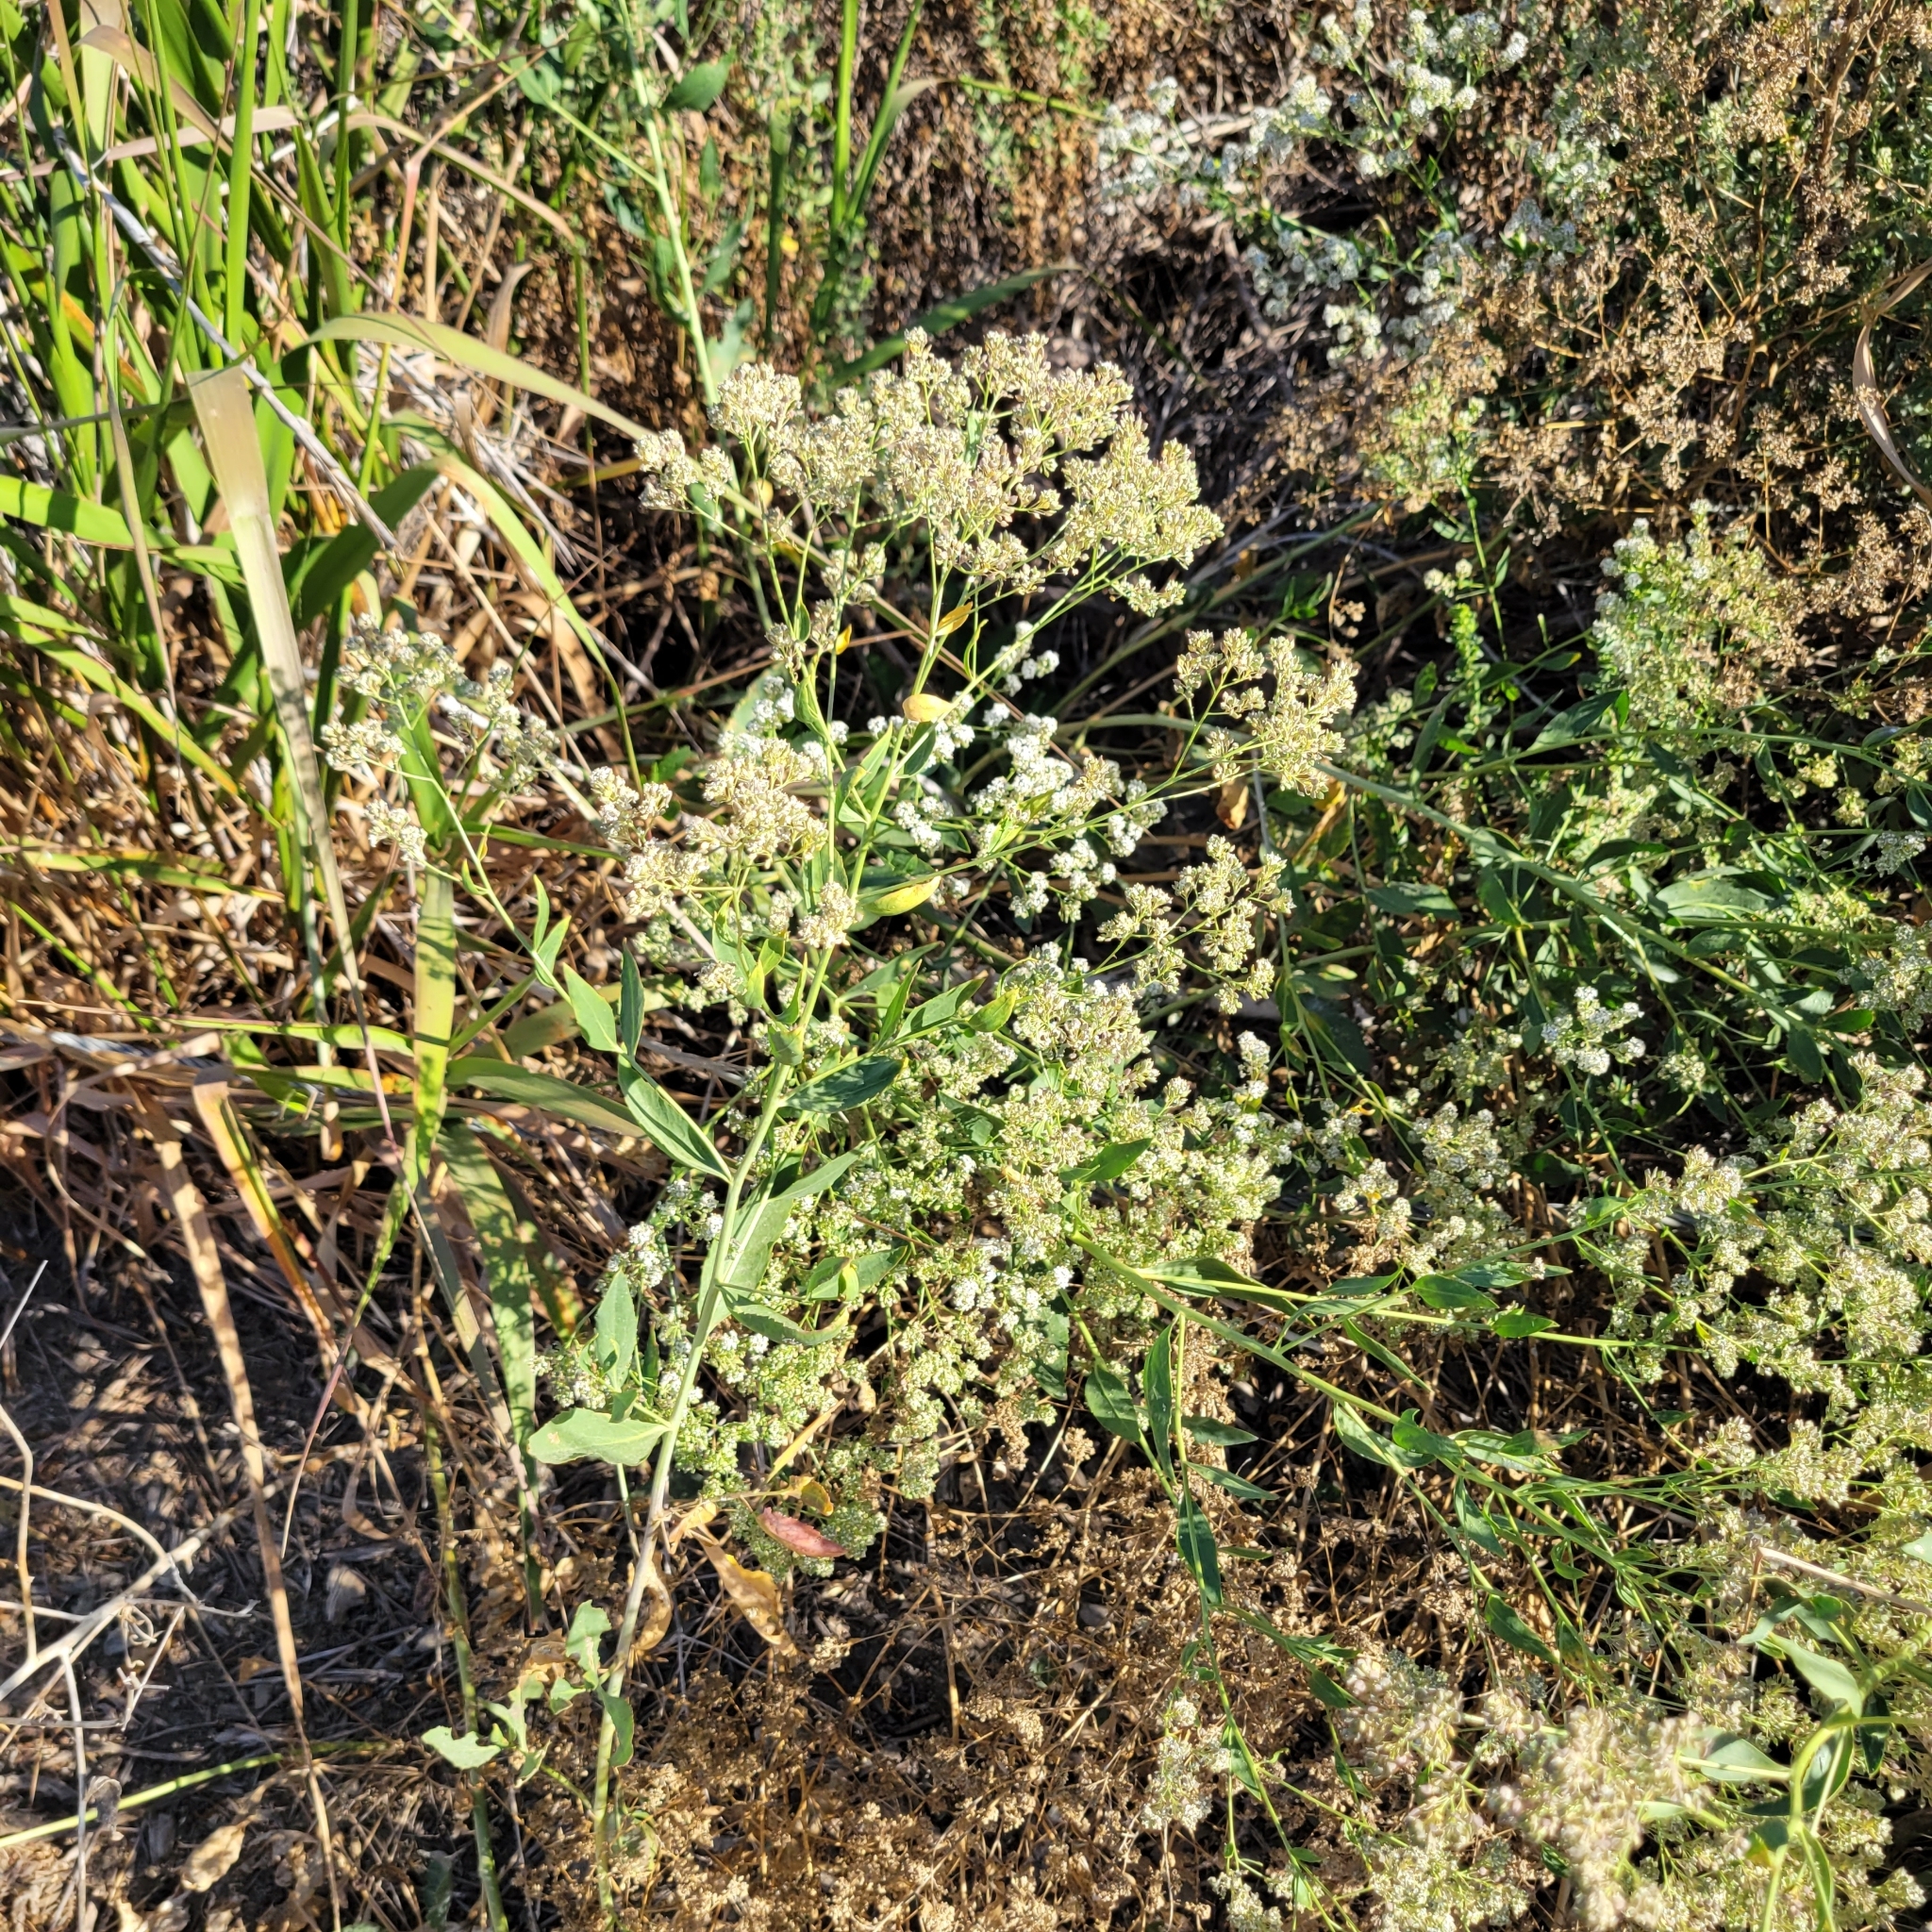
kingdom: Plantae
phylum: Tracheophyta
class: Magnoliopsida
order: Brassicales
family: Brassicaceae
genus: Lepidium
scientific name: Lepidium latifolium
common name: Dittander
